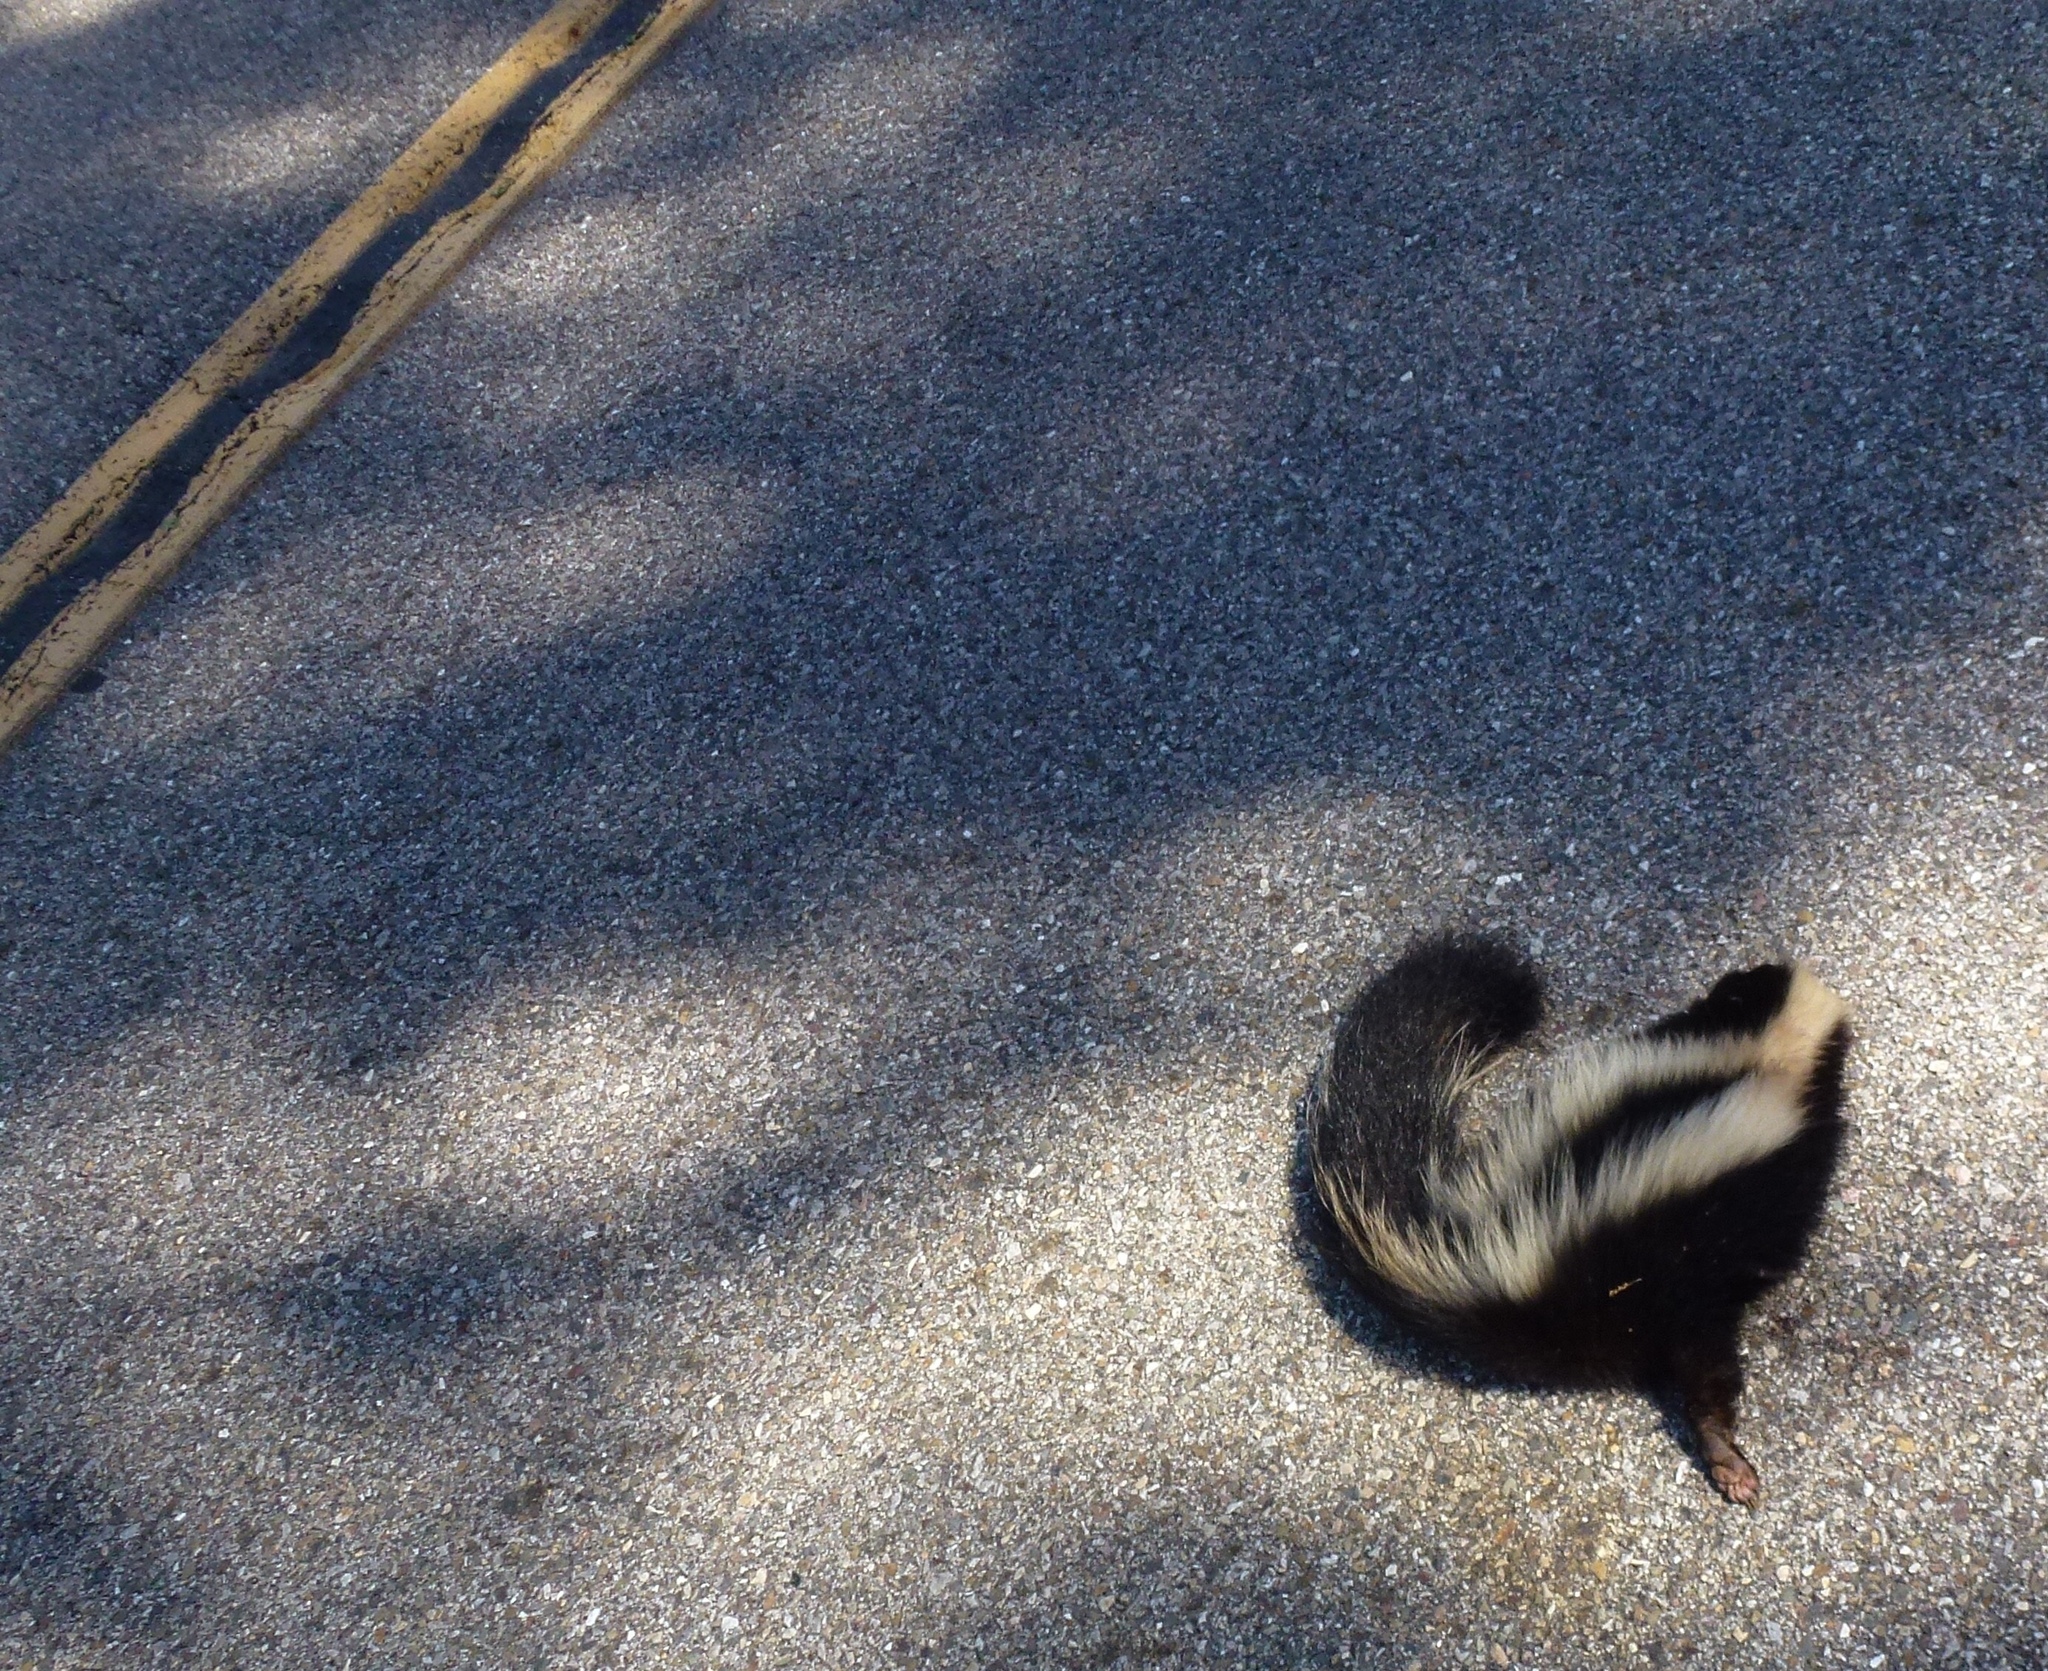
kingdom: Animalia
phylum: Chordata
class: Mammalia
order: Carnivora
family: Mephitidae
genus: Mephitis
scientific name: Mephitis mephitis
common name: Striped skunk
